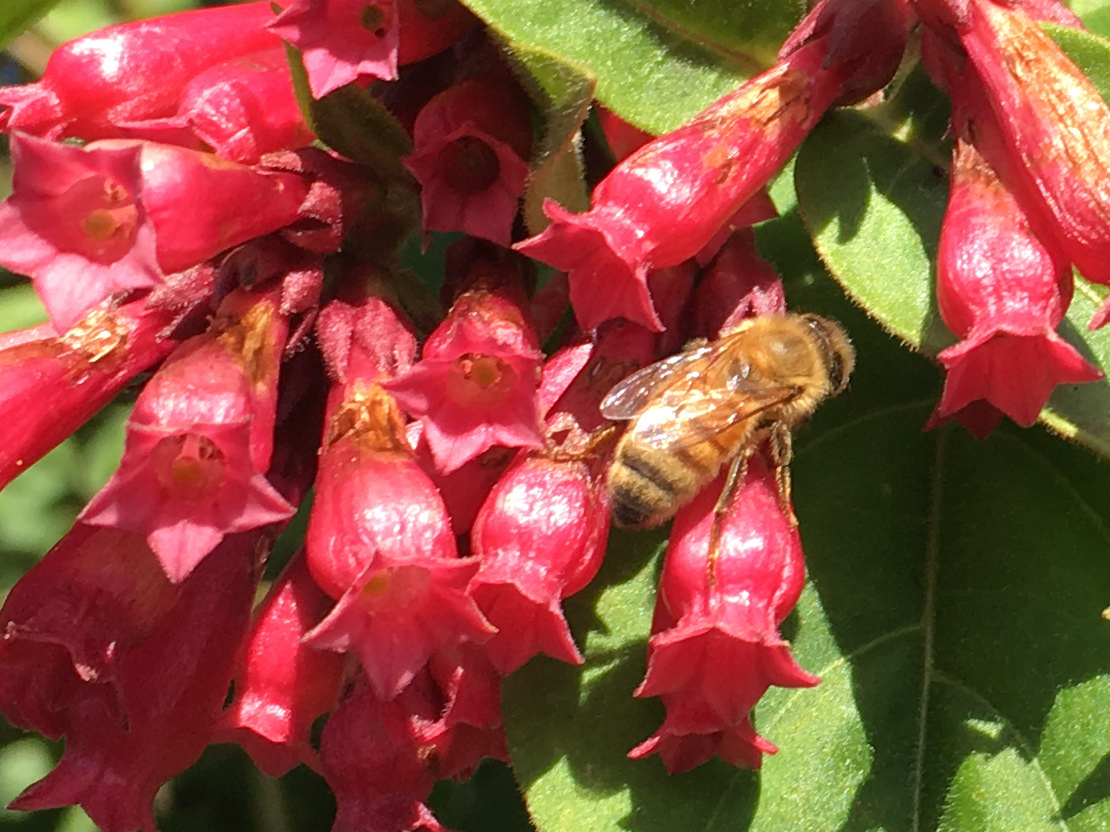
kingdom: Animalia
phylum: Arthropoda
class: Insecta
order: Hymenoptera
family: Apidae
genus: Apis
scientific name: Apis mellifera
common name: Honey bee
